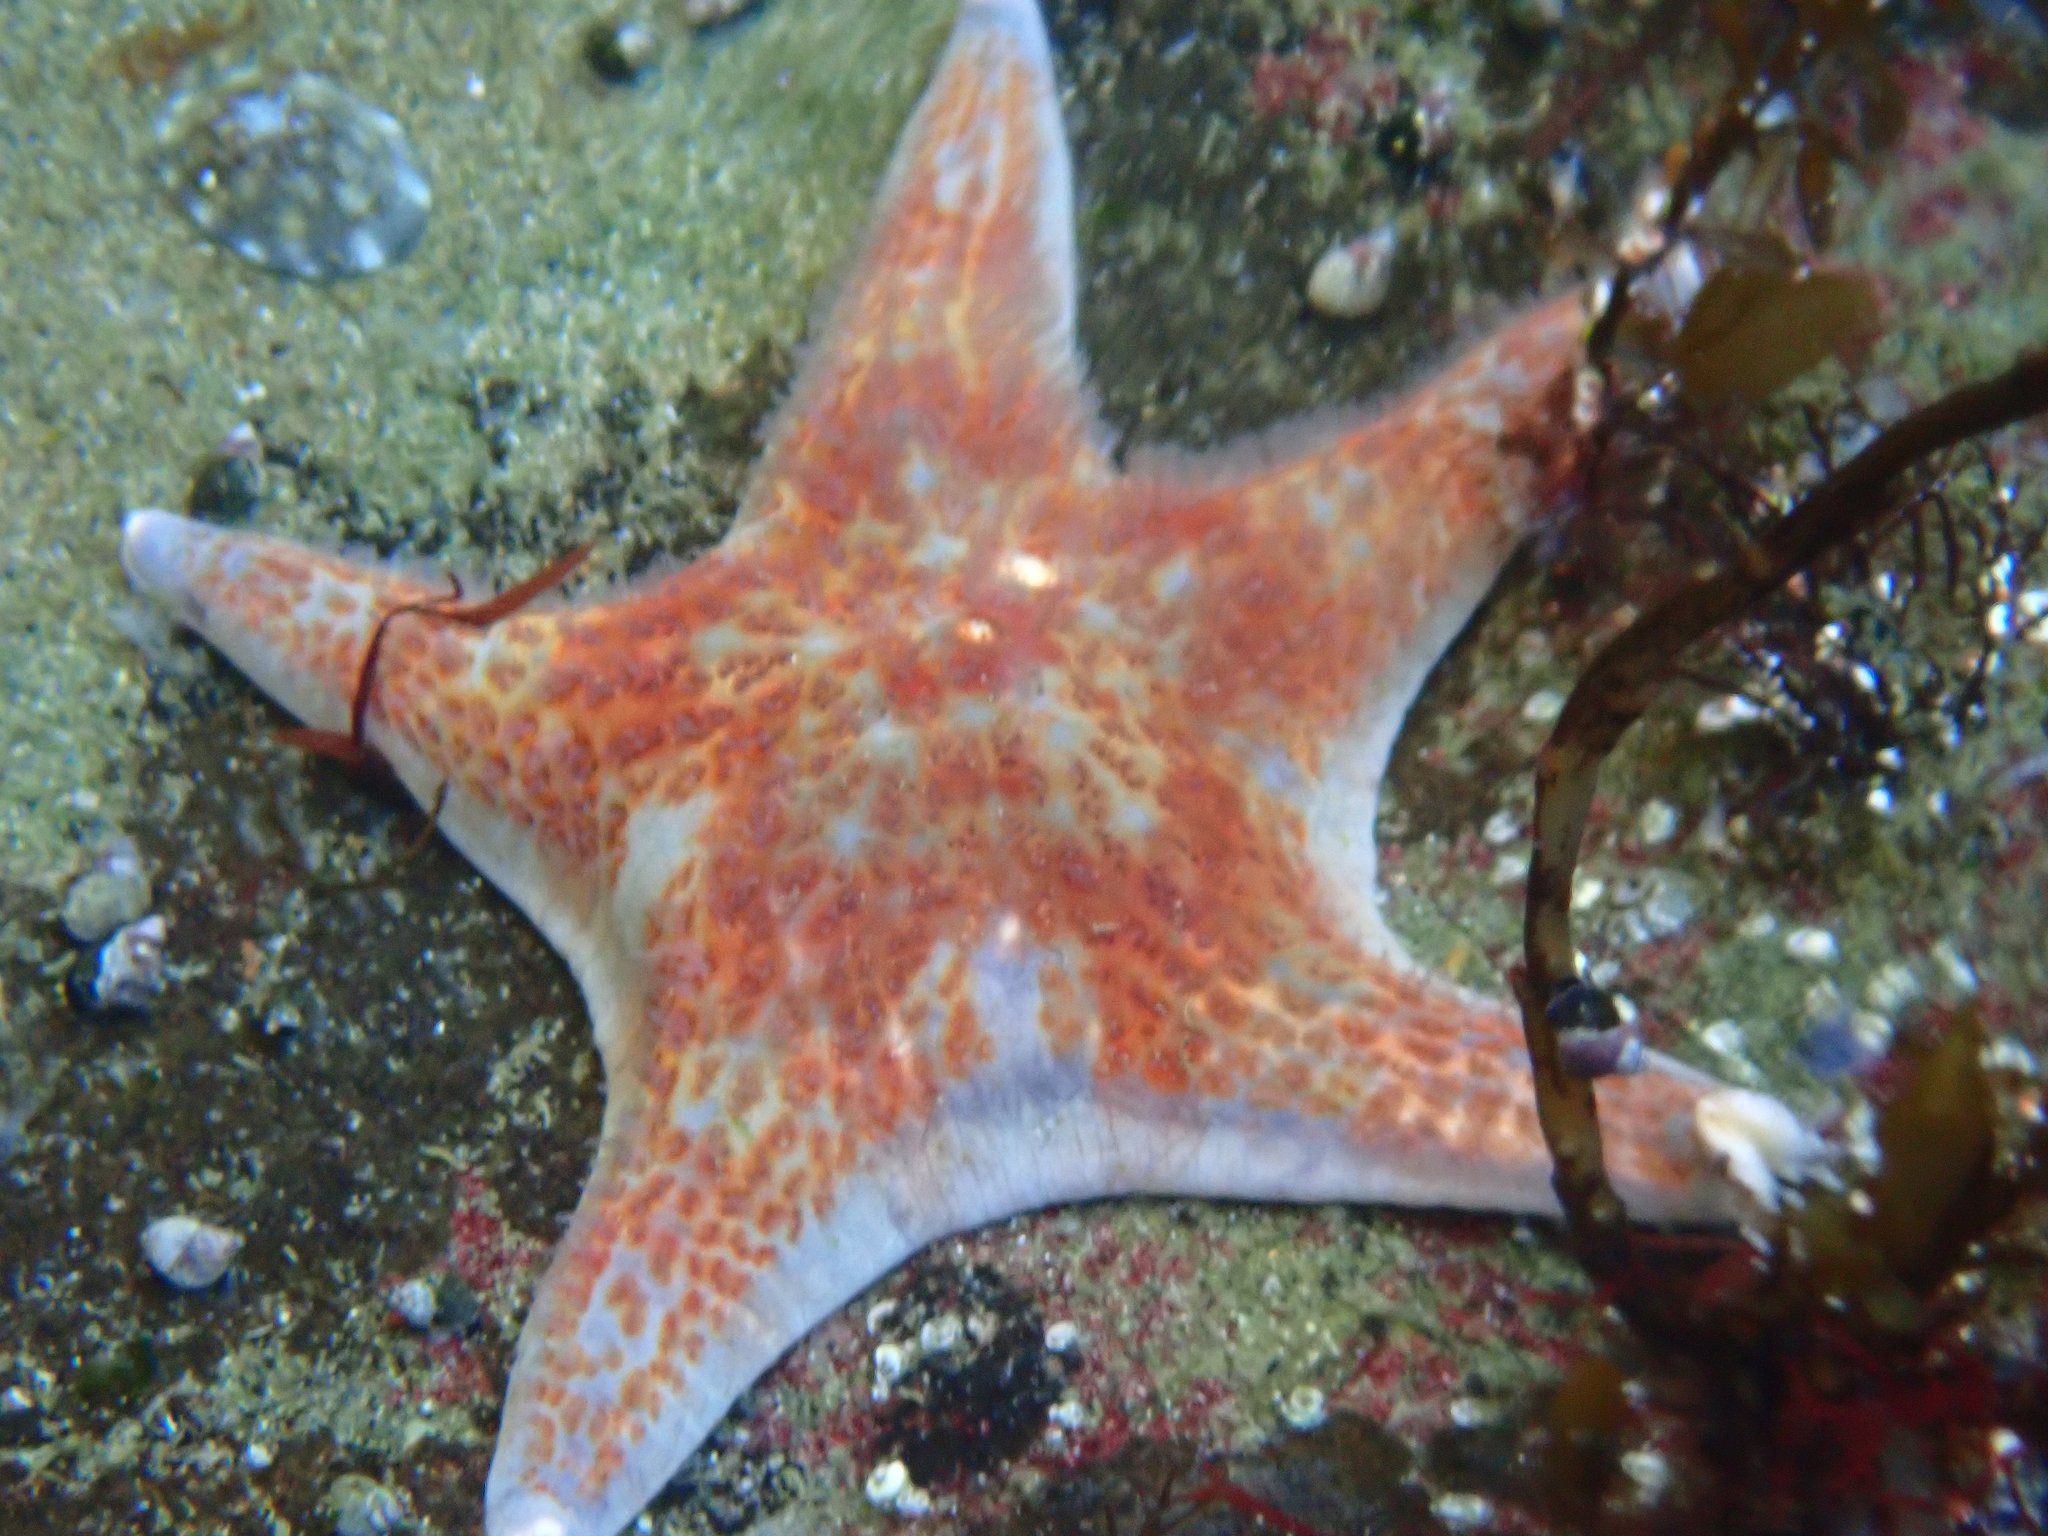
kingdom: Animalia
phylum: Echinodermata
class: Asteroidea
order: Valvatida
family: Asteropseidae
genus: Dermasterias
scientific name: Dermasterias imbricata
